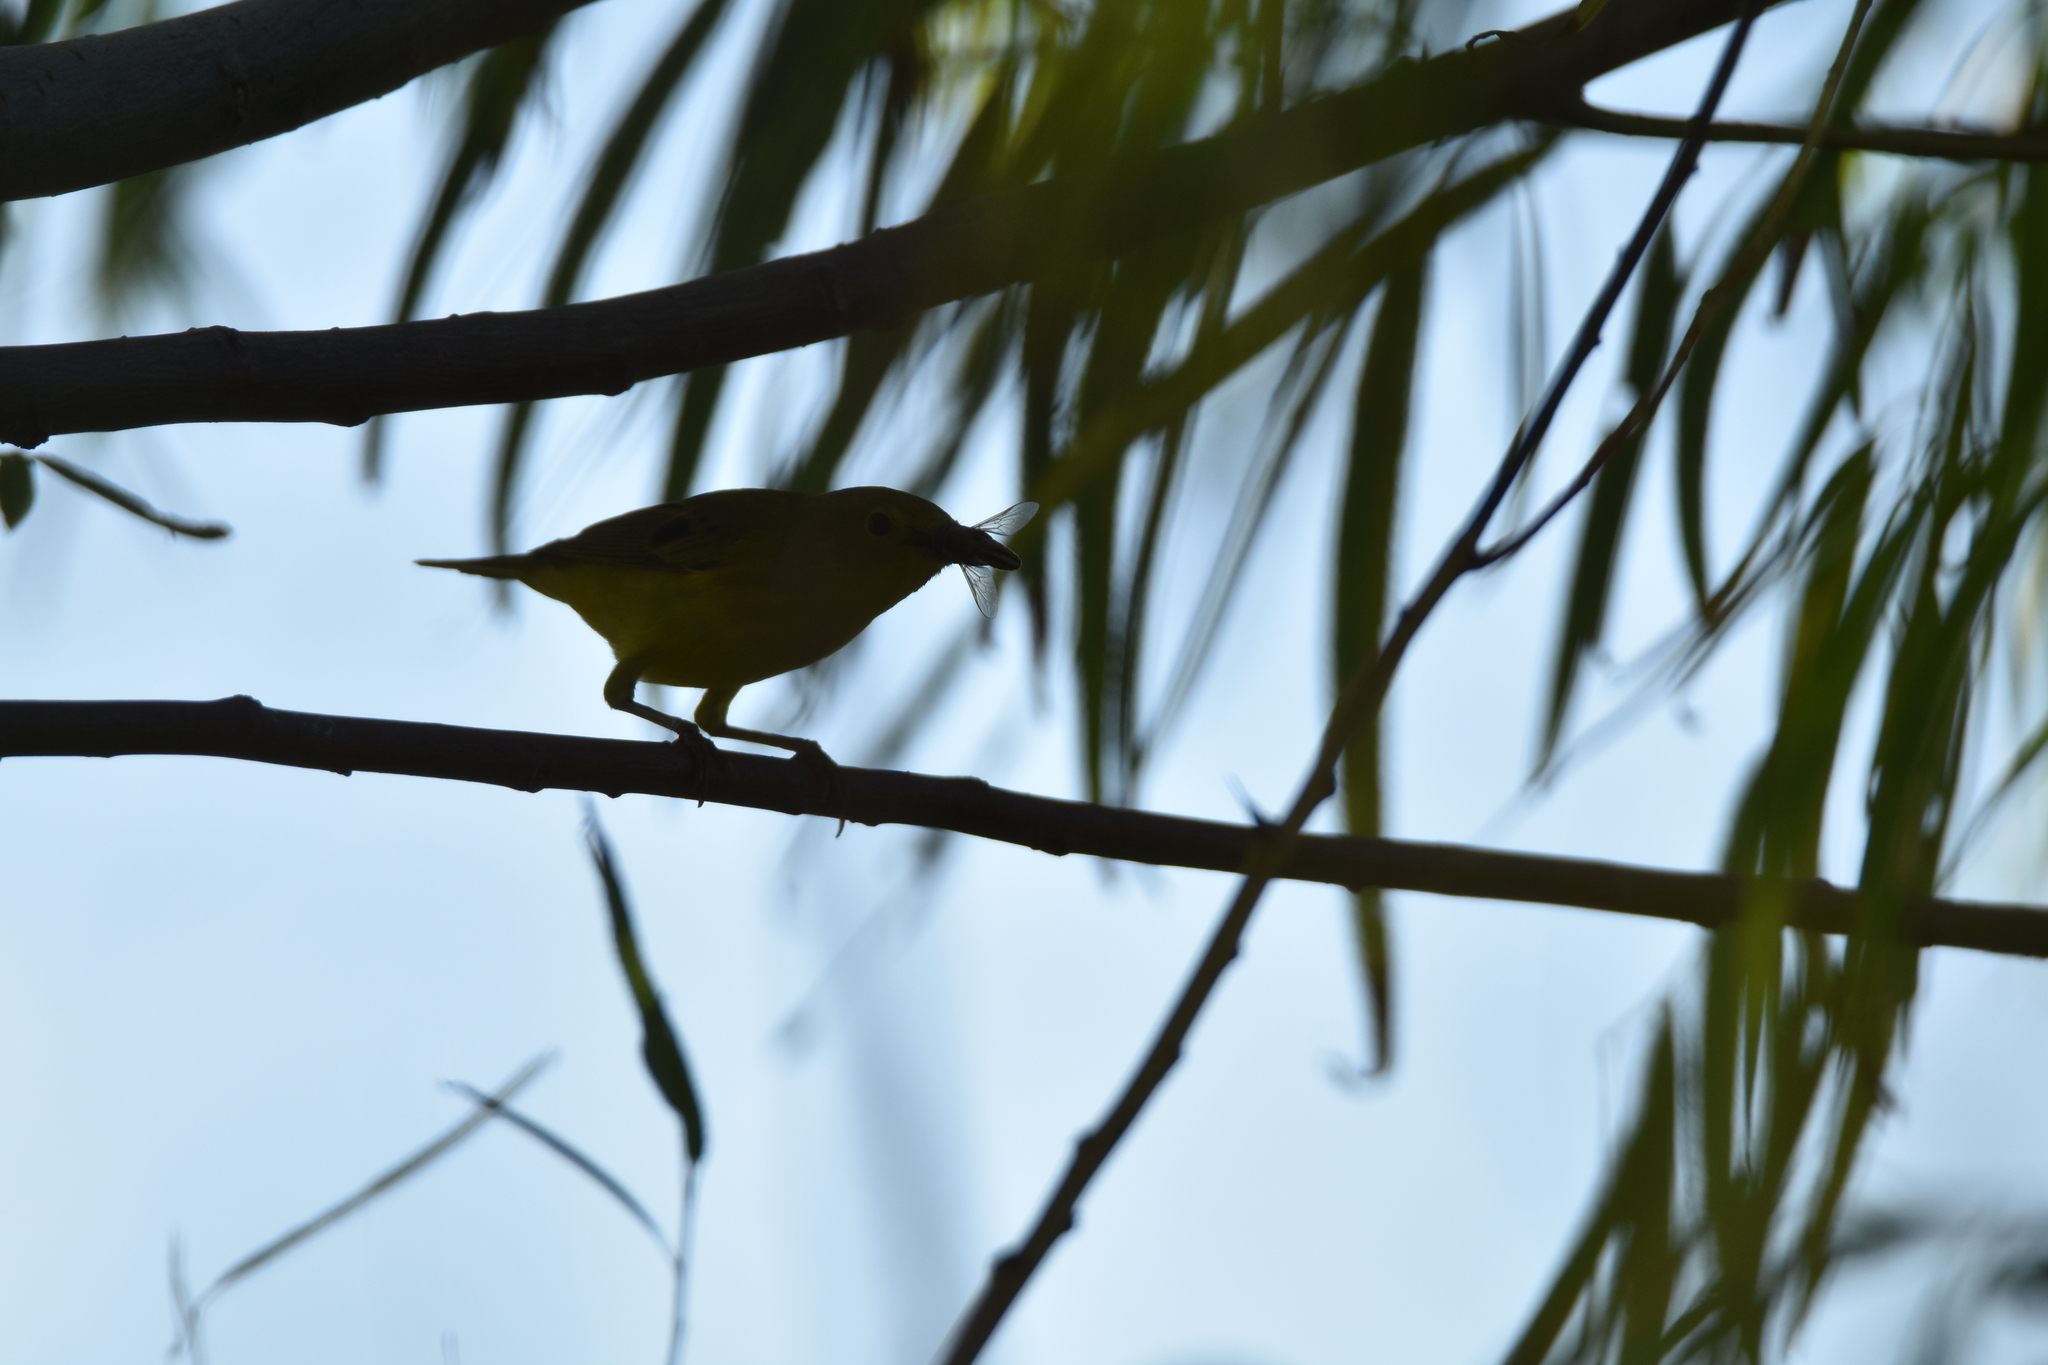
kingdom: Animalia
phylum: Chordata
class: Aves
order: Passeriformes
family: Parulidae
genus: Setophaga
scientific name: Setophaga petechia
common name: Yellow warbler
